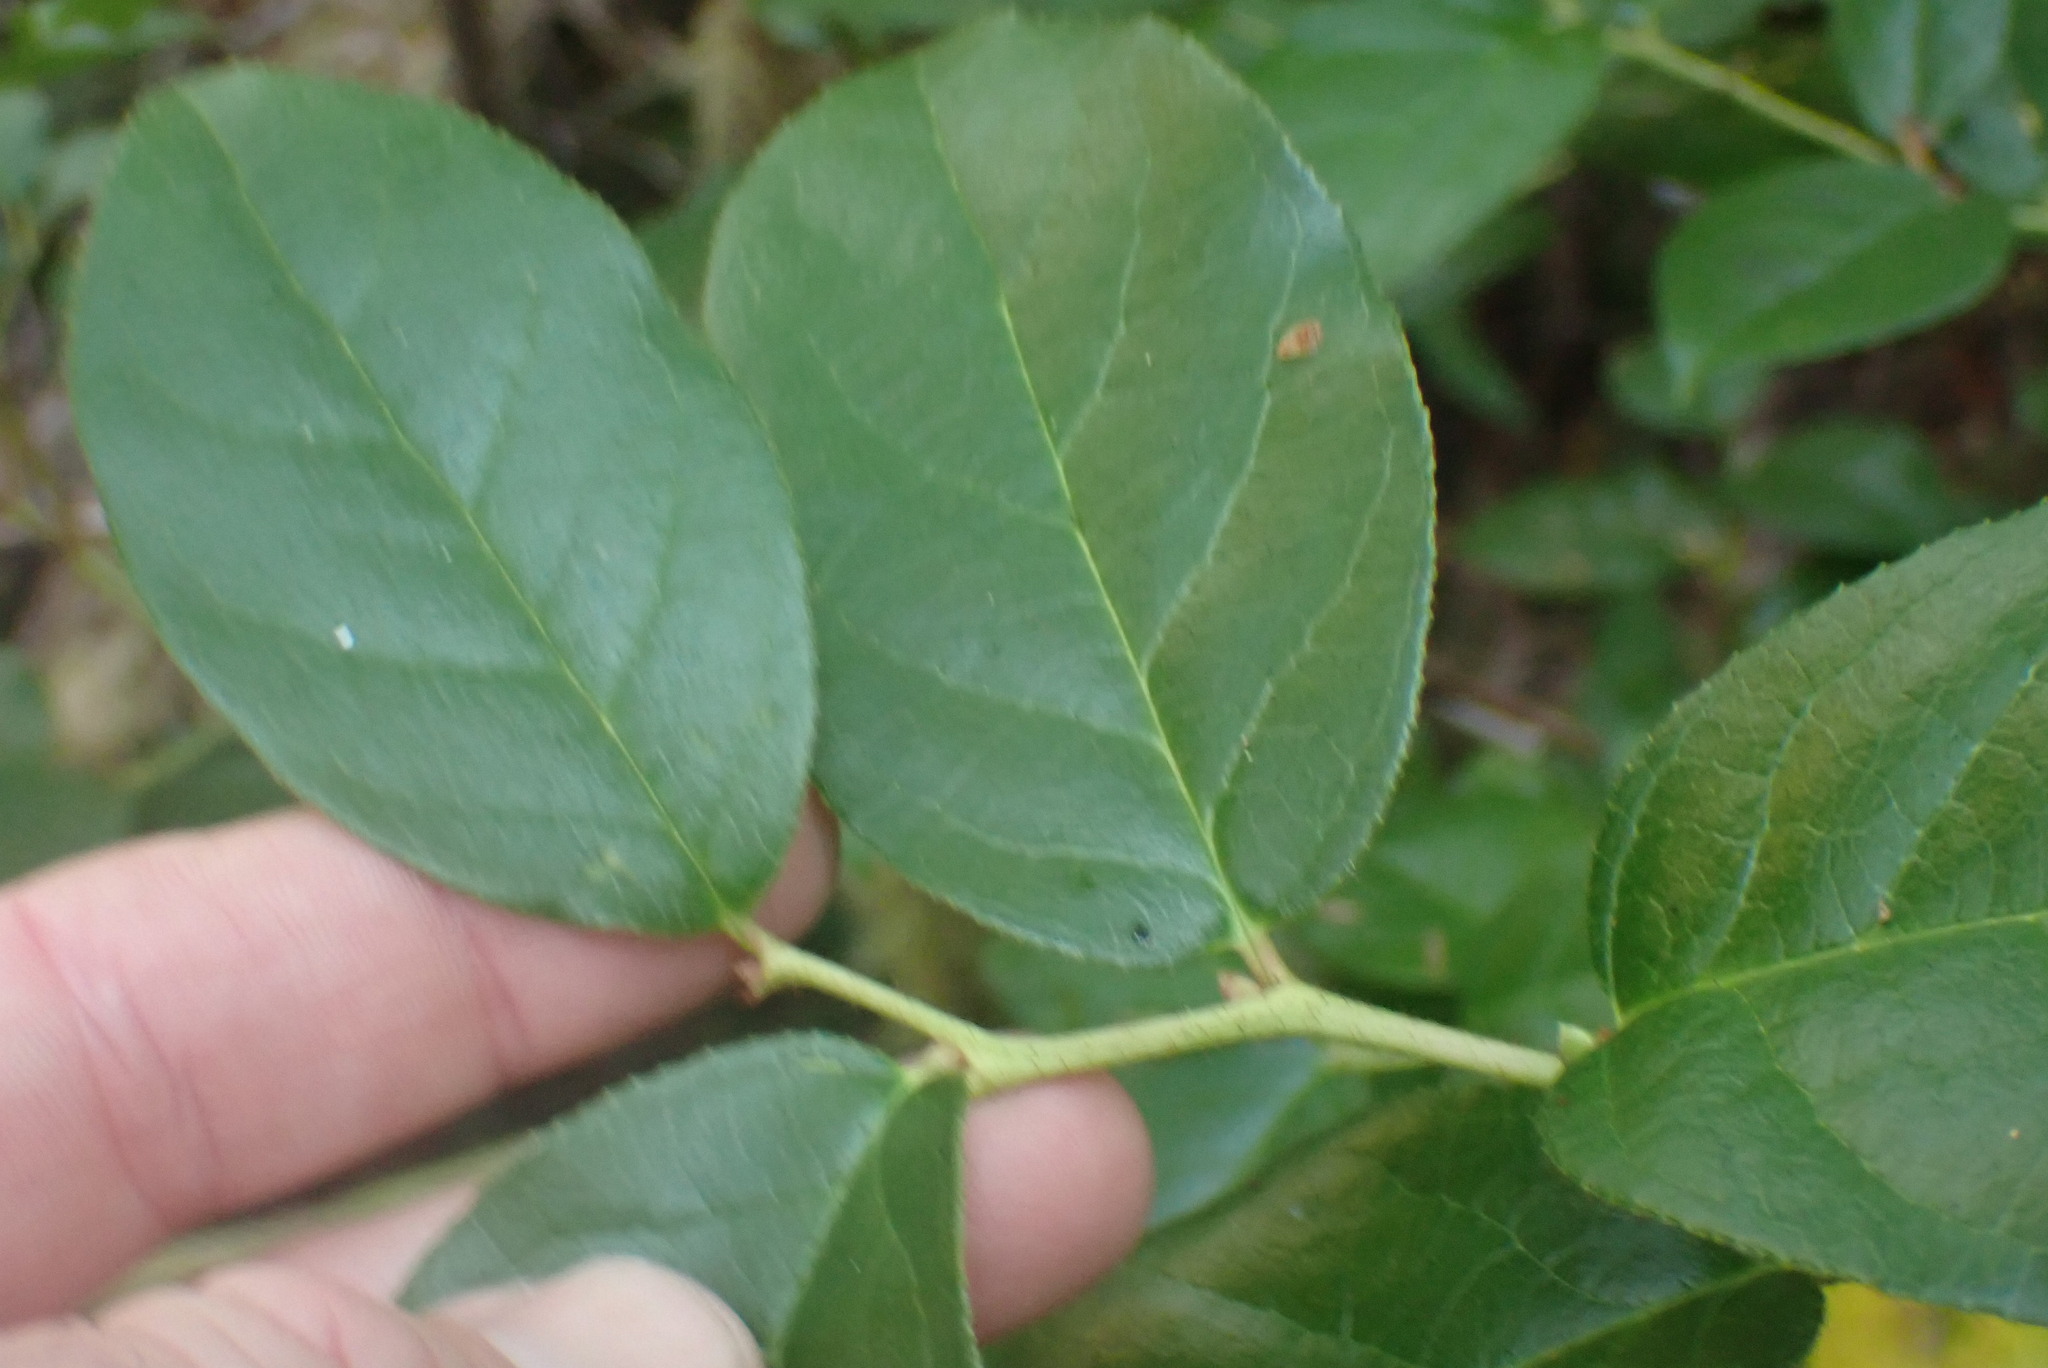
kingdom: Plantae
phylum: Tracheophyta
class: Magnoliopsida
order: Ericales
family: Ericaceae
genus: Gaultheria
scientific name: Gaultheria shallon
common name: Shallon
